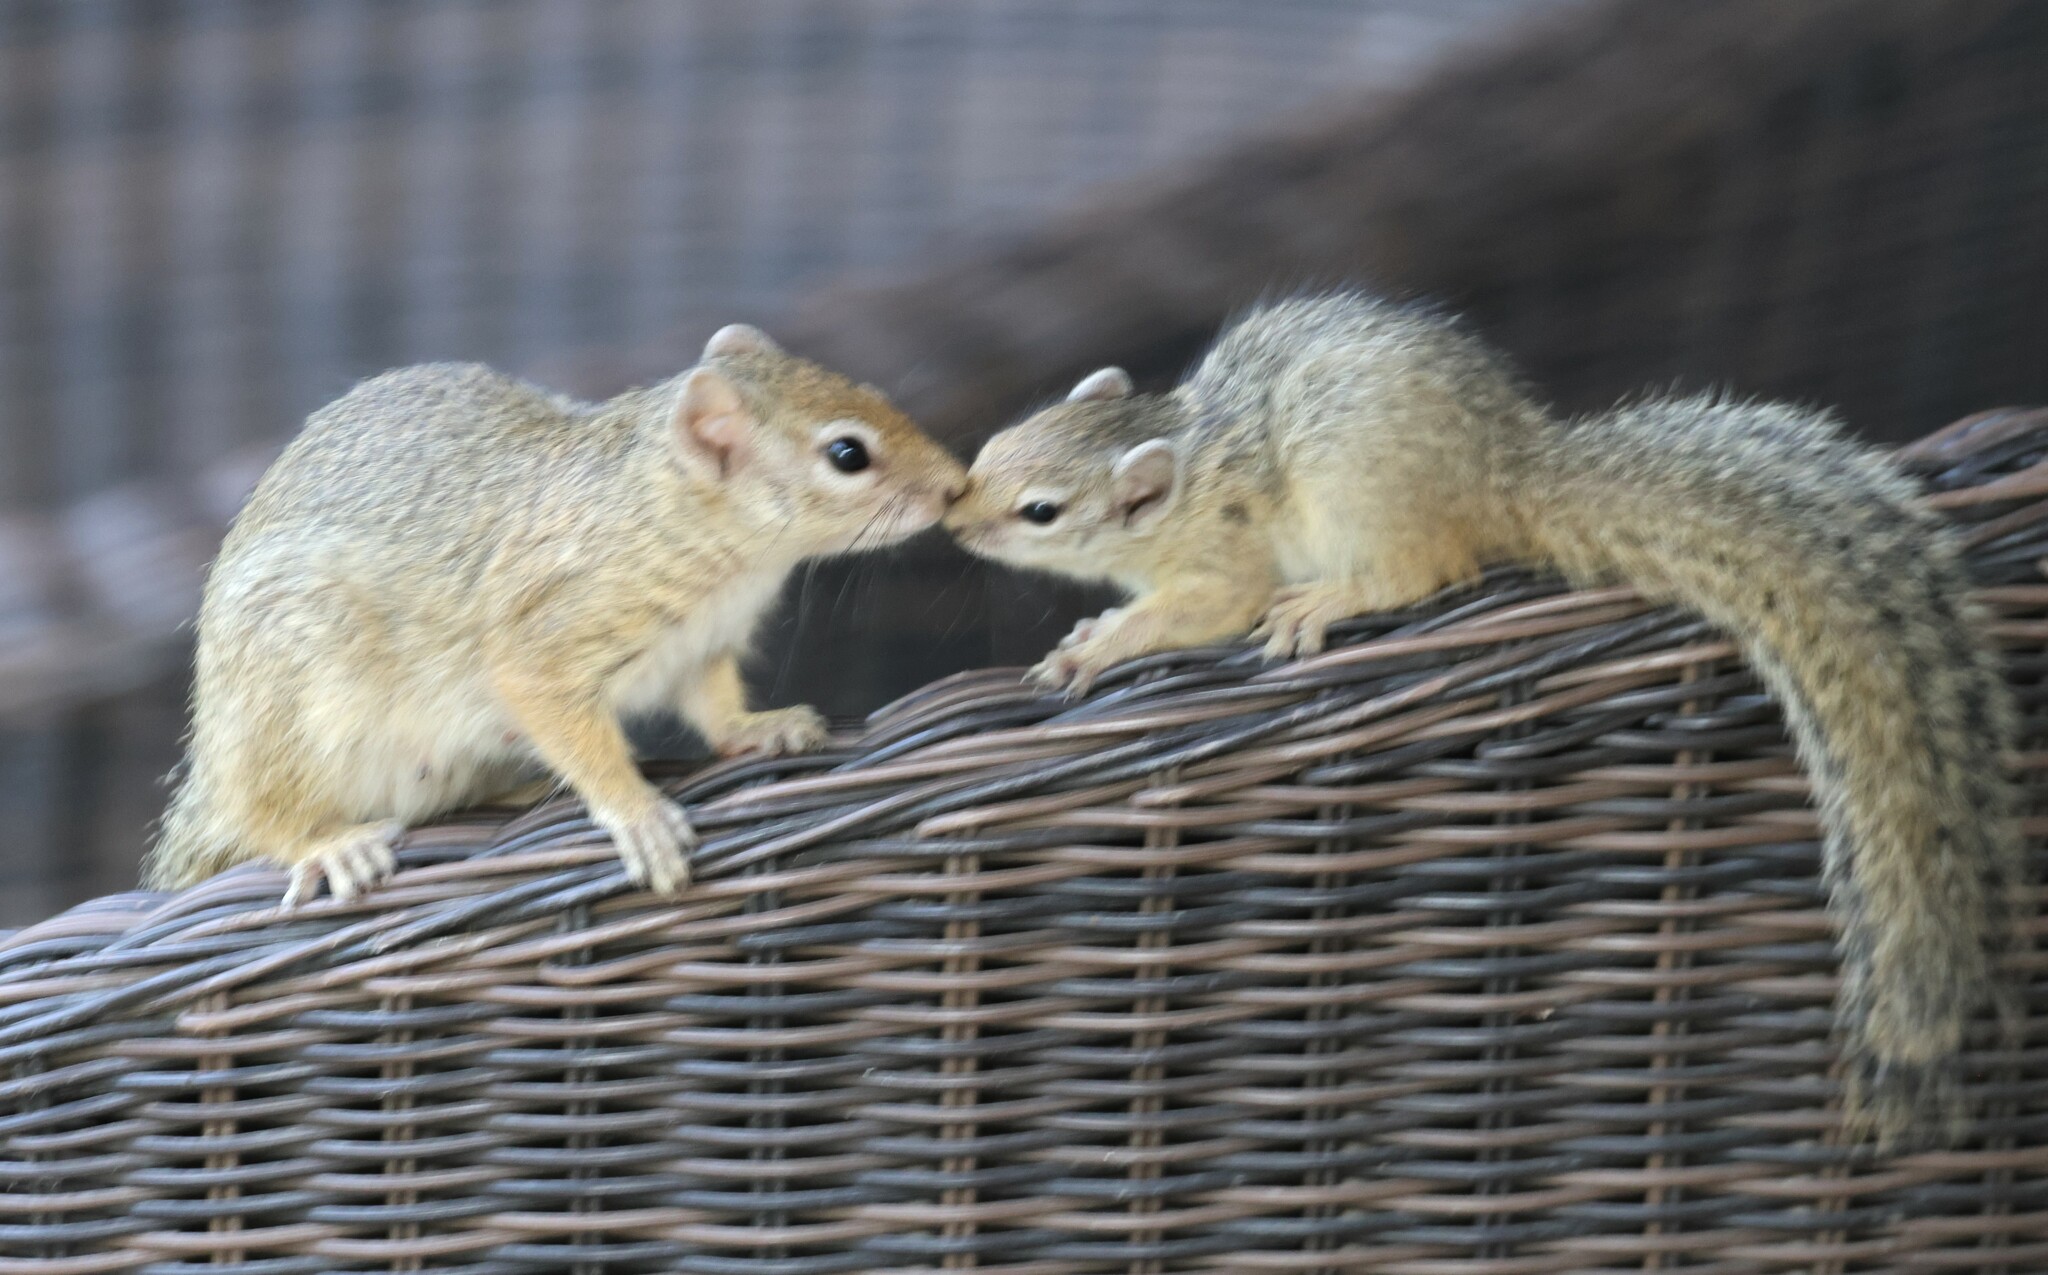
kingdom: Animalia
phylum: Chordata
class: Mammalia
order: Rodentia
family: Sciuridae
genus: Paraxerus
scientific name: Paraxerus cepapi
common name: Smith's bush squirrel
